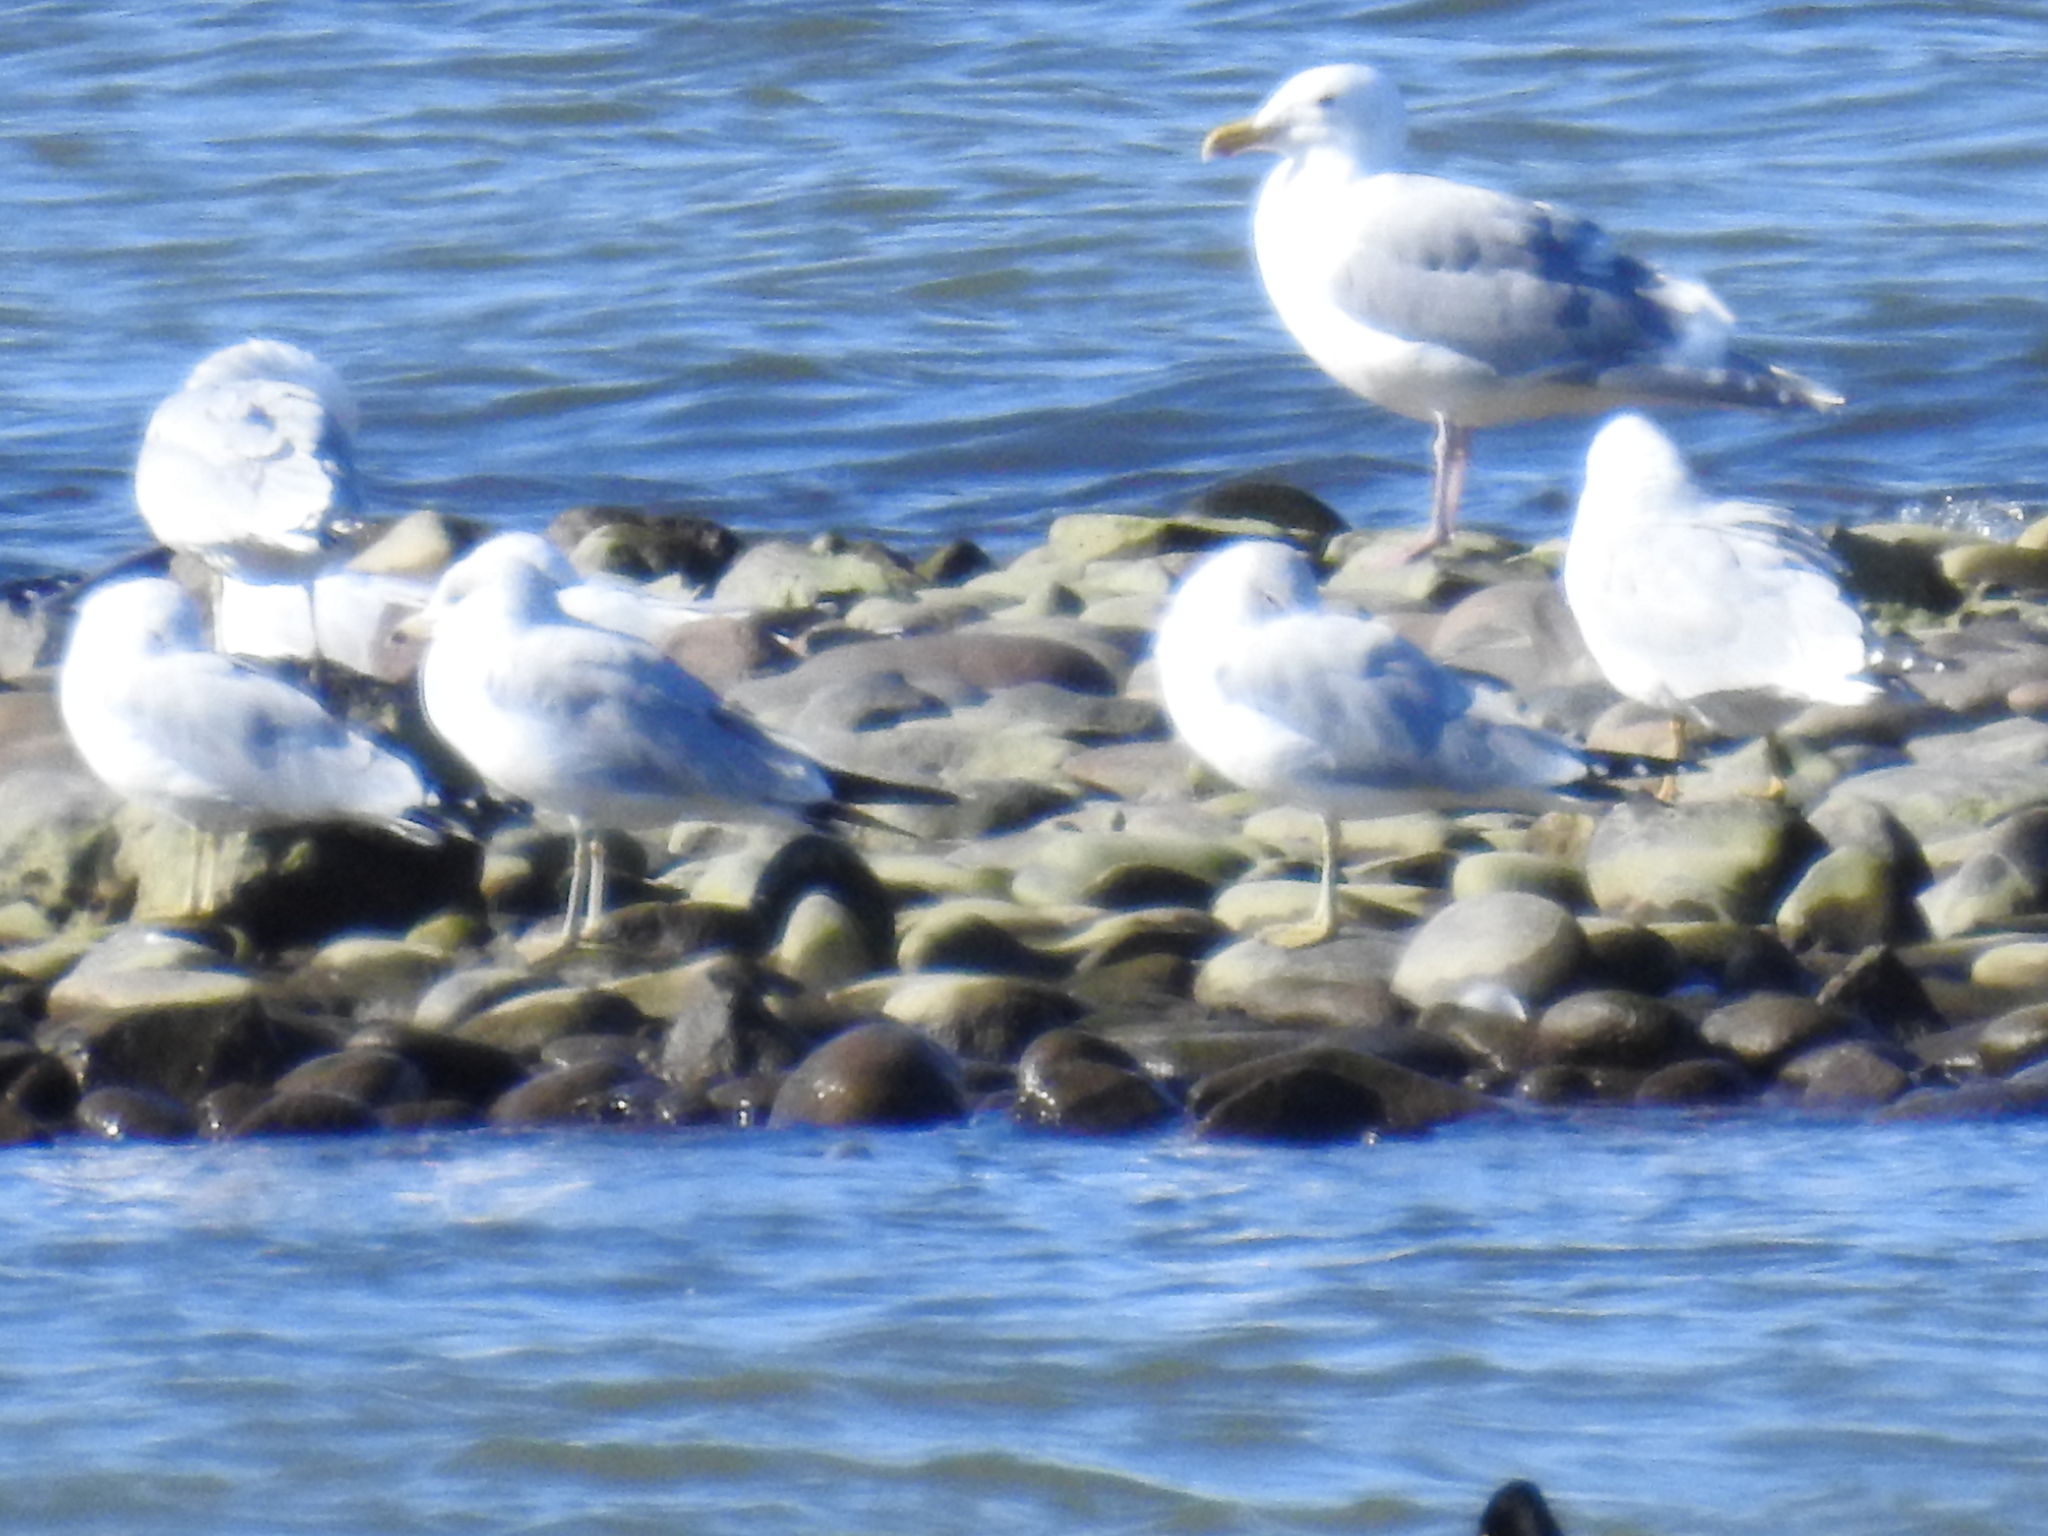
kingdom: Animalia
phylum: Chordata
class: Aves
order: Charadriiformes
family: Laridae
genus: Larus
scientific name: Larus glaucescens
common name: Glaucous-winged gull
